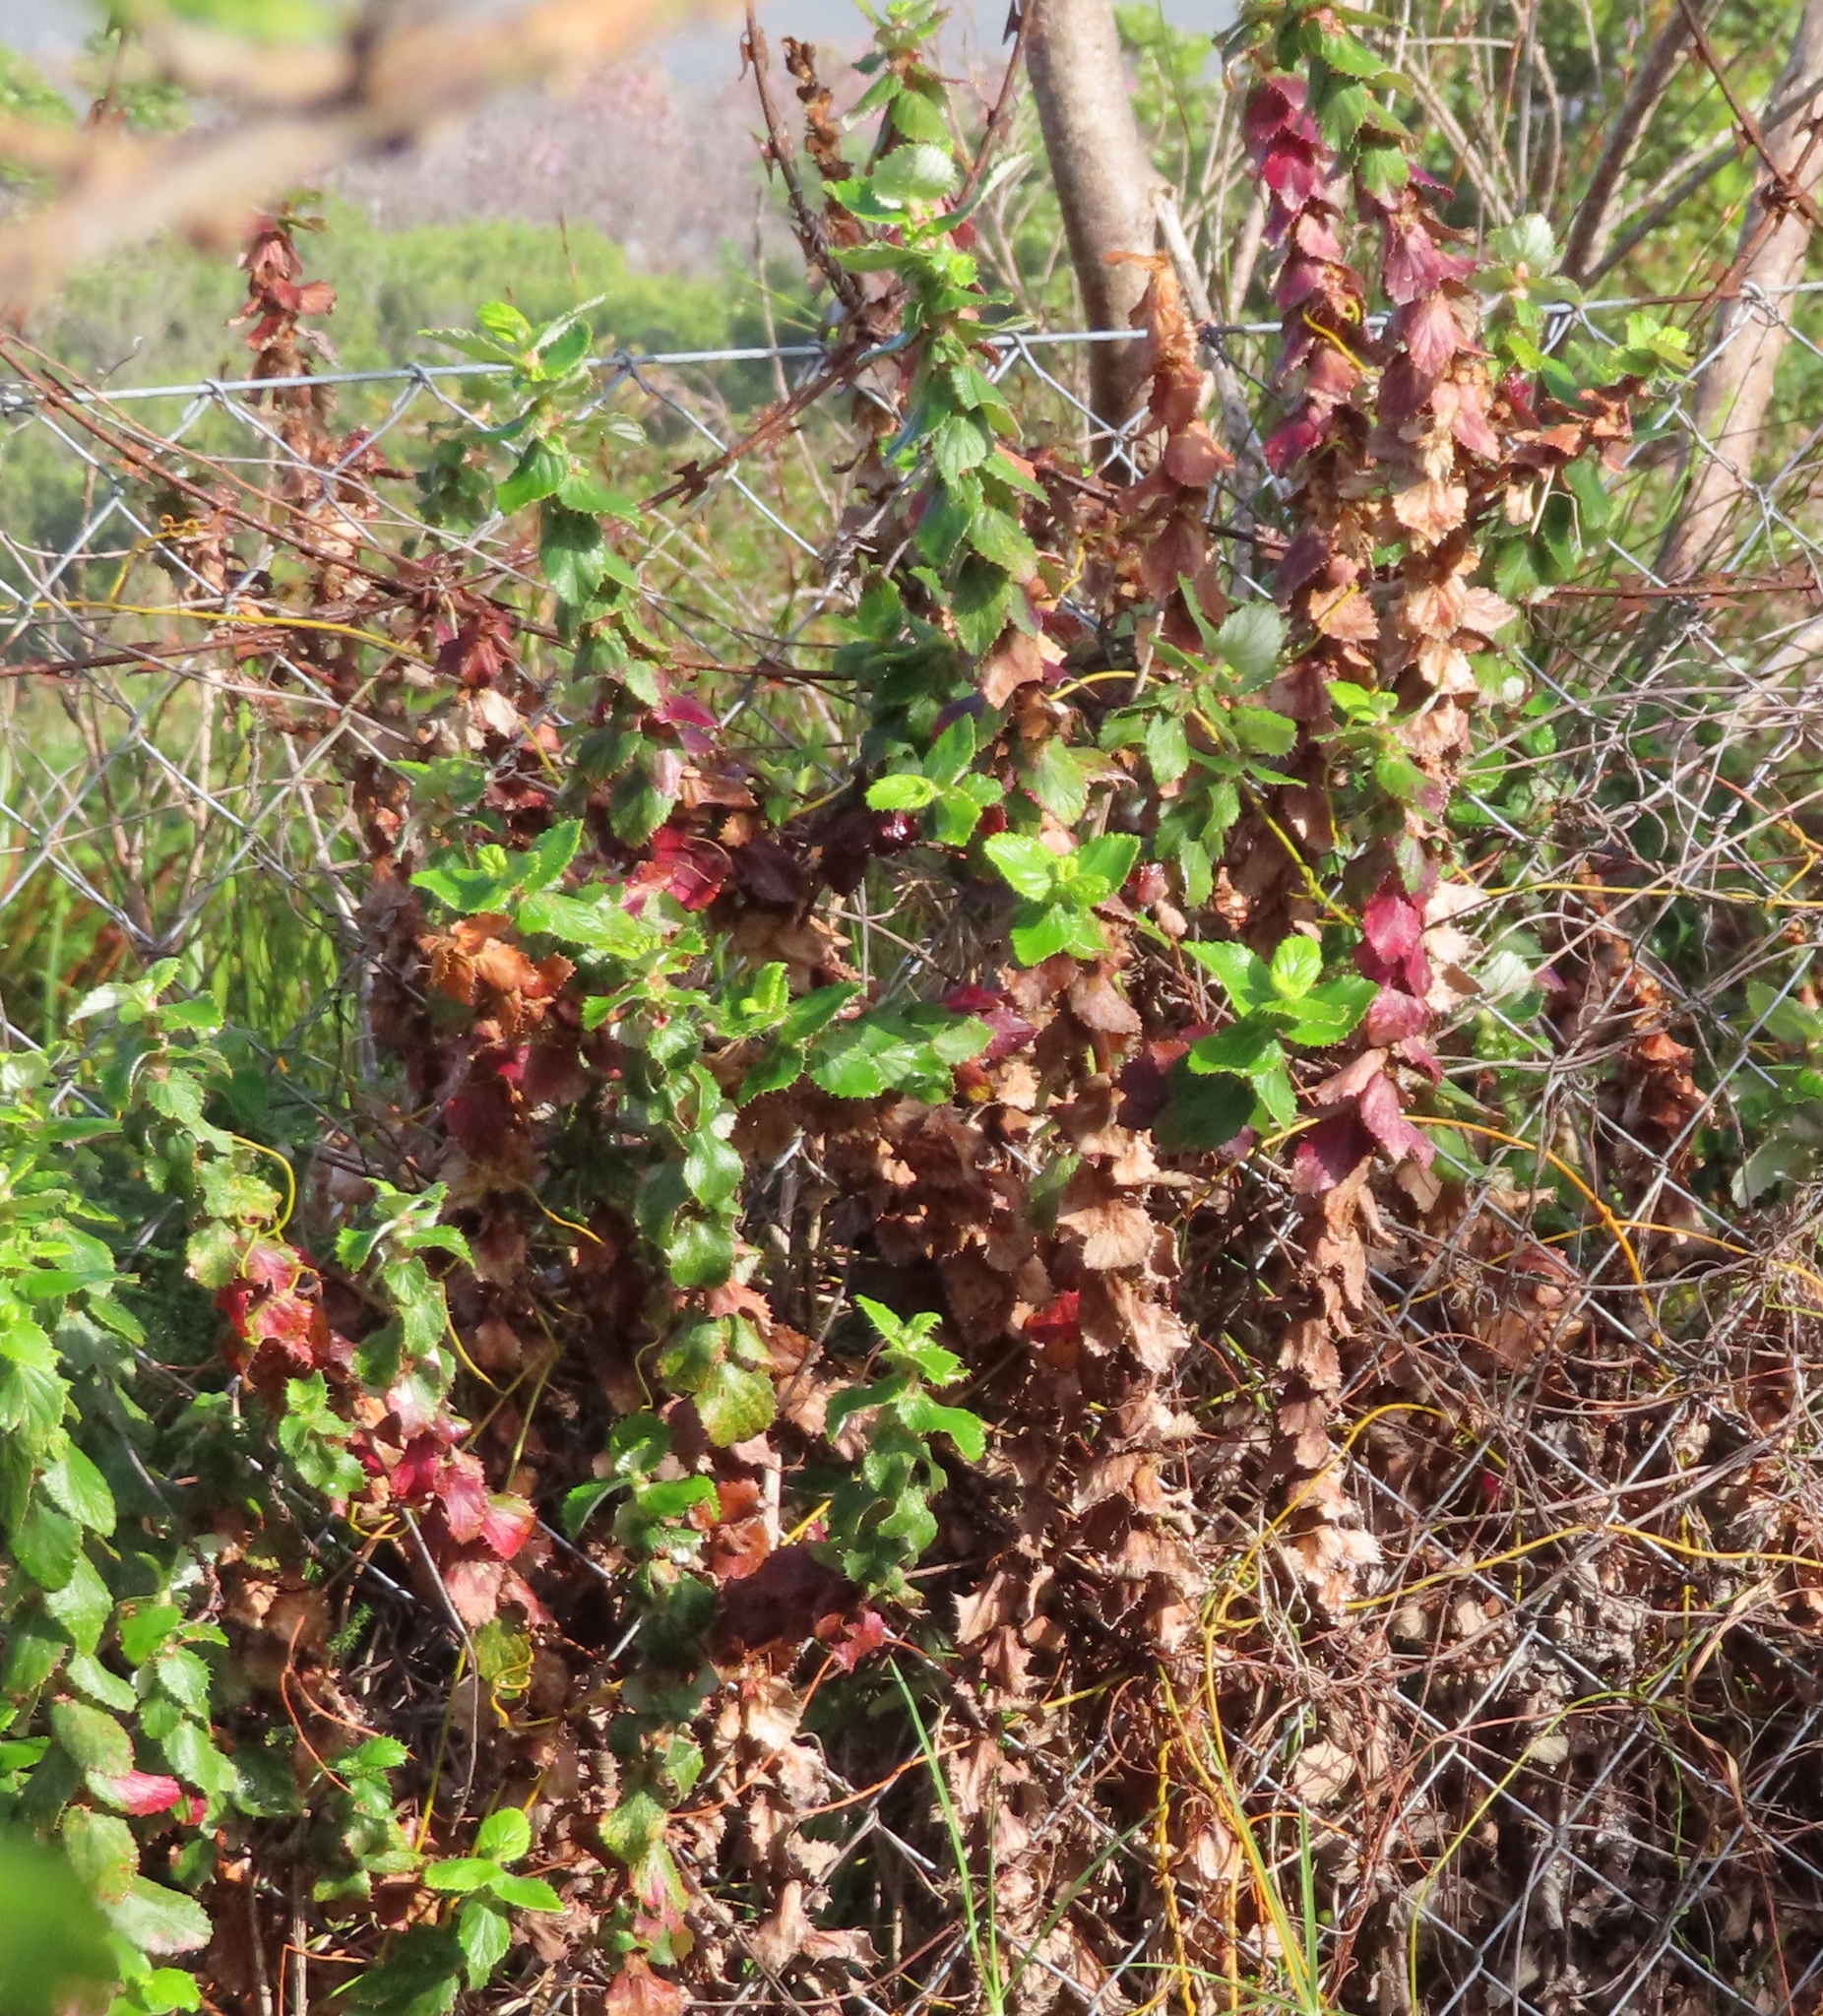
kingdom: Plantae
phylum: Tracheophyta
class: Magnoliopsida
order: Rosales
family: Rosaceae
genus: Cliffortia
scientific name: Cliffortia hirsuta
